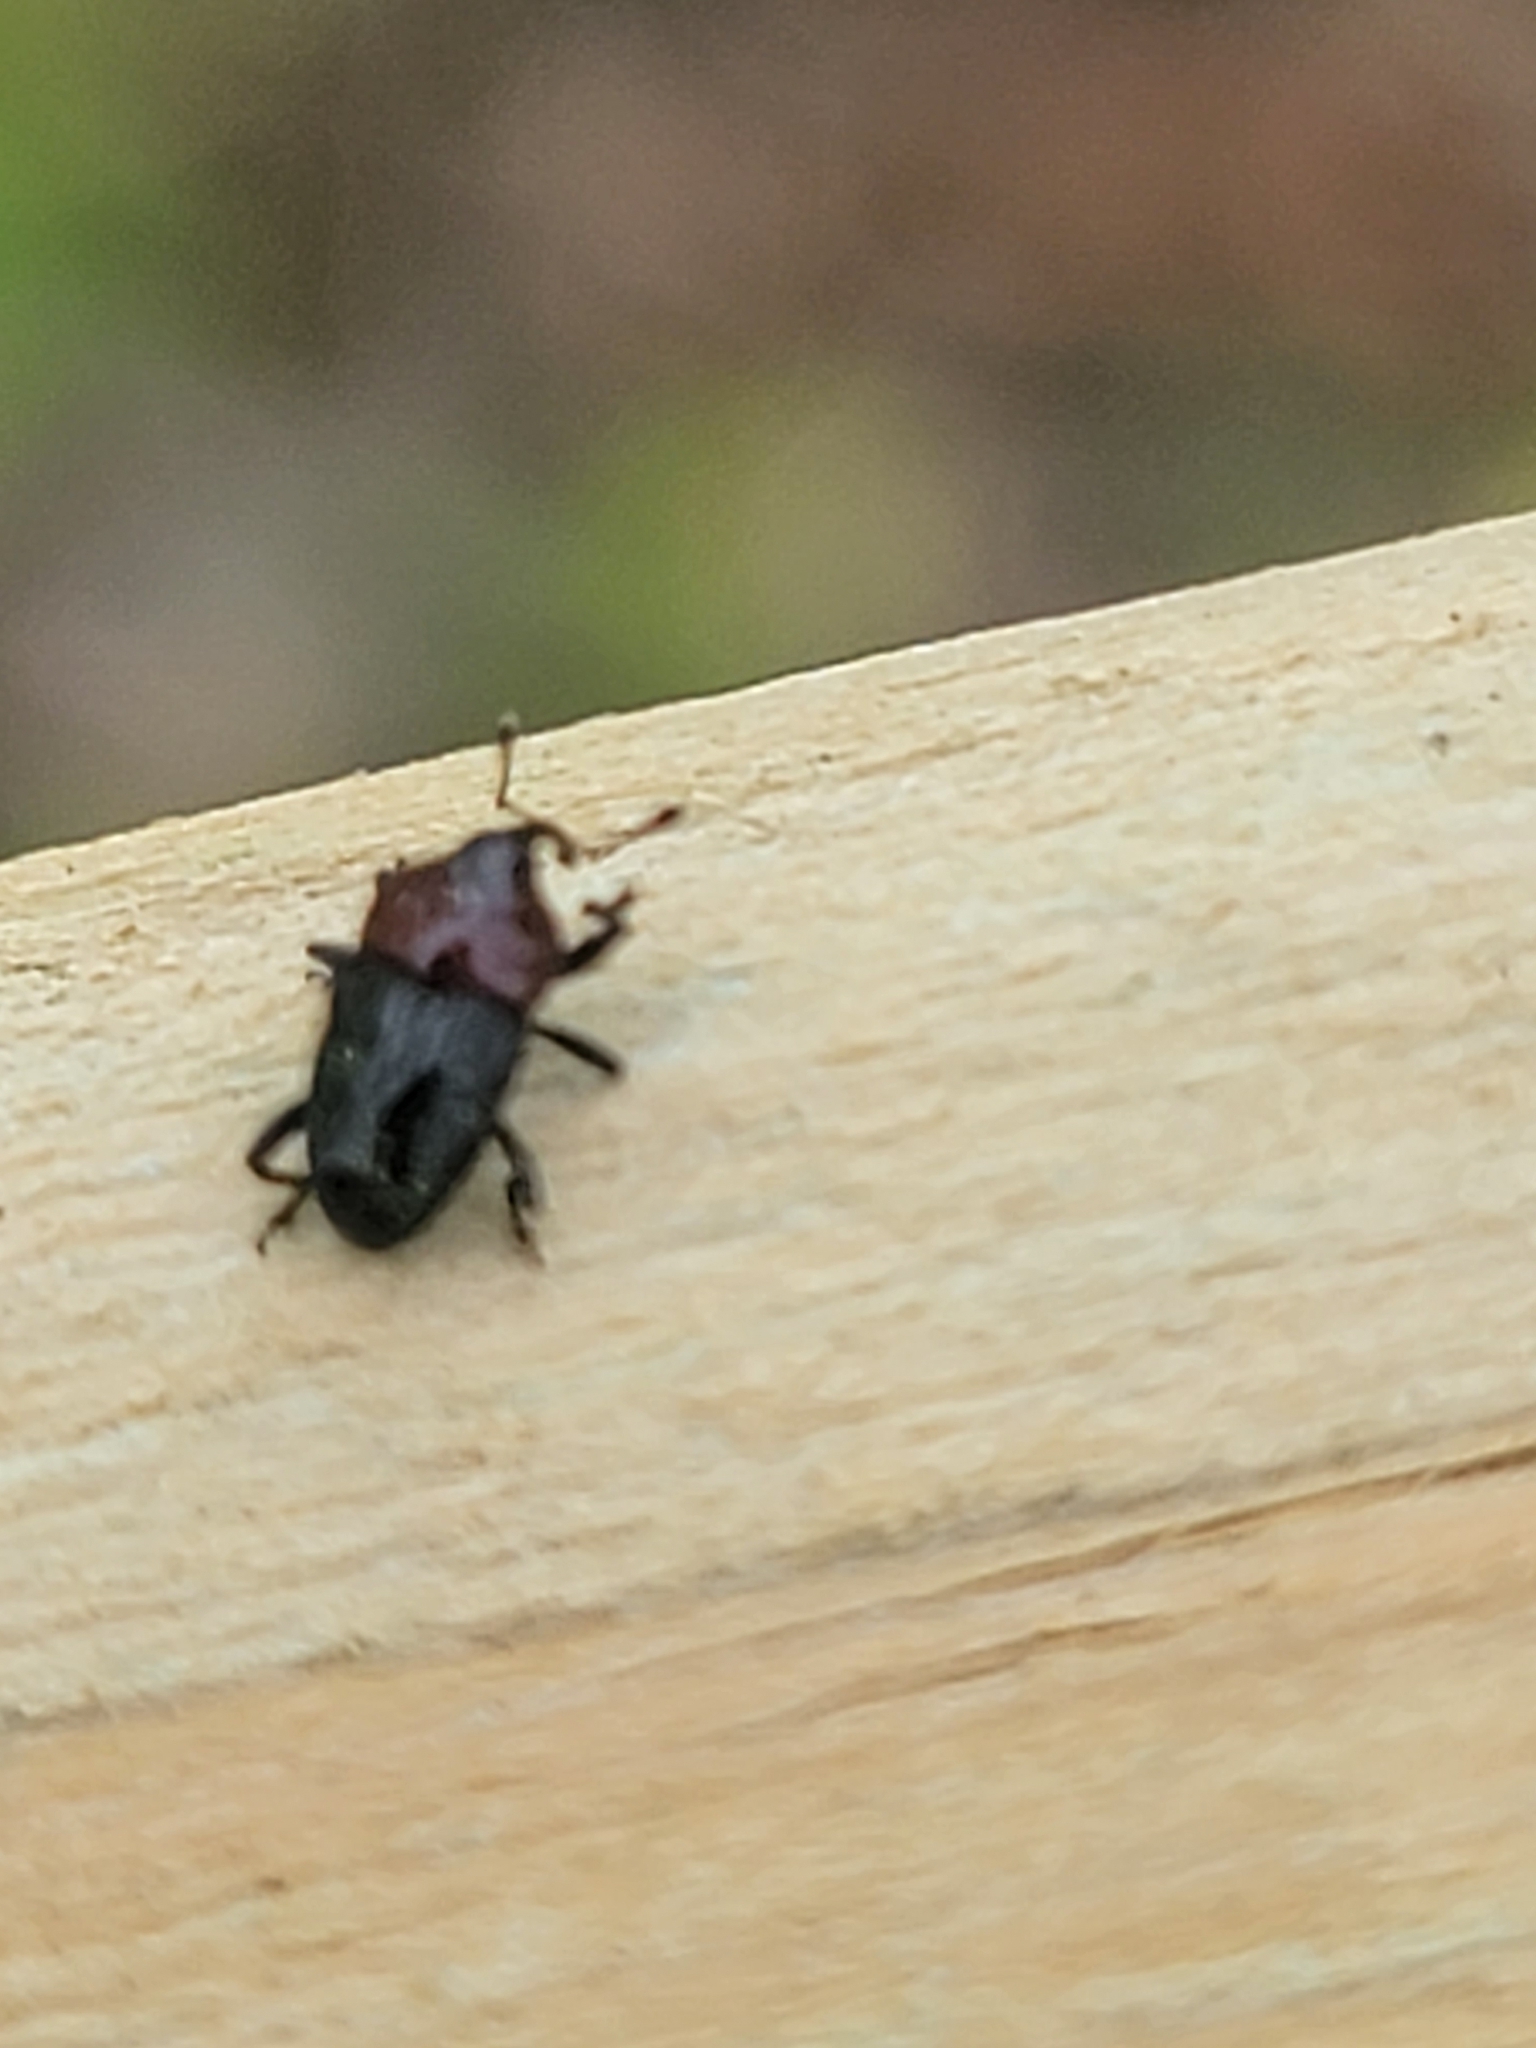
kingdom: Animalia
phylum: Arthropoda
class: Insecta
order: Coleoptera
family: Curculionidae
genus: Madarellus
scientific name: Madarellus undulatus
